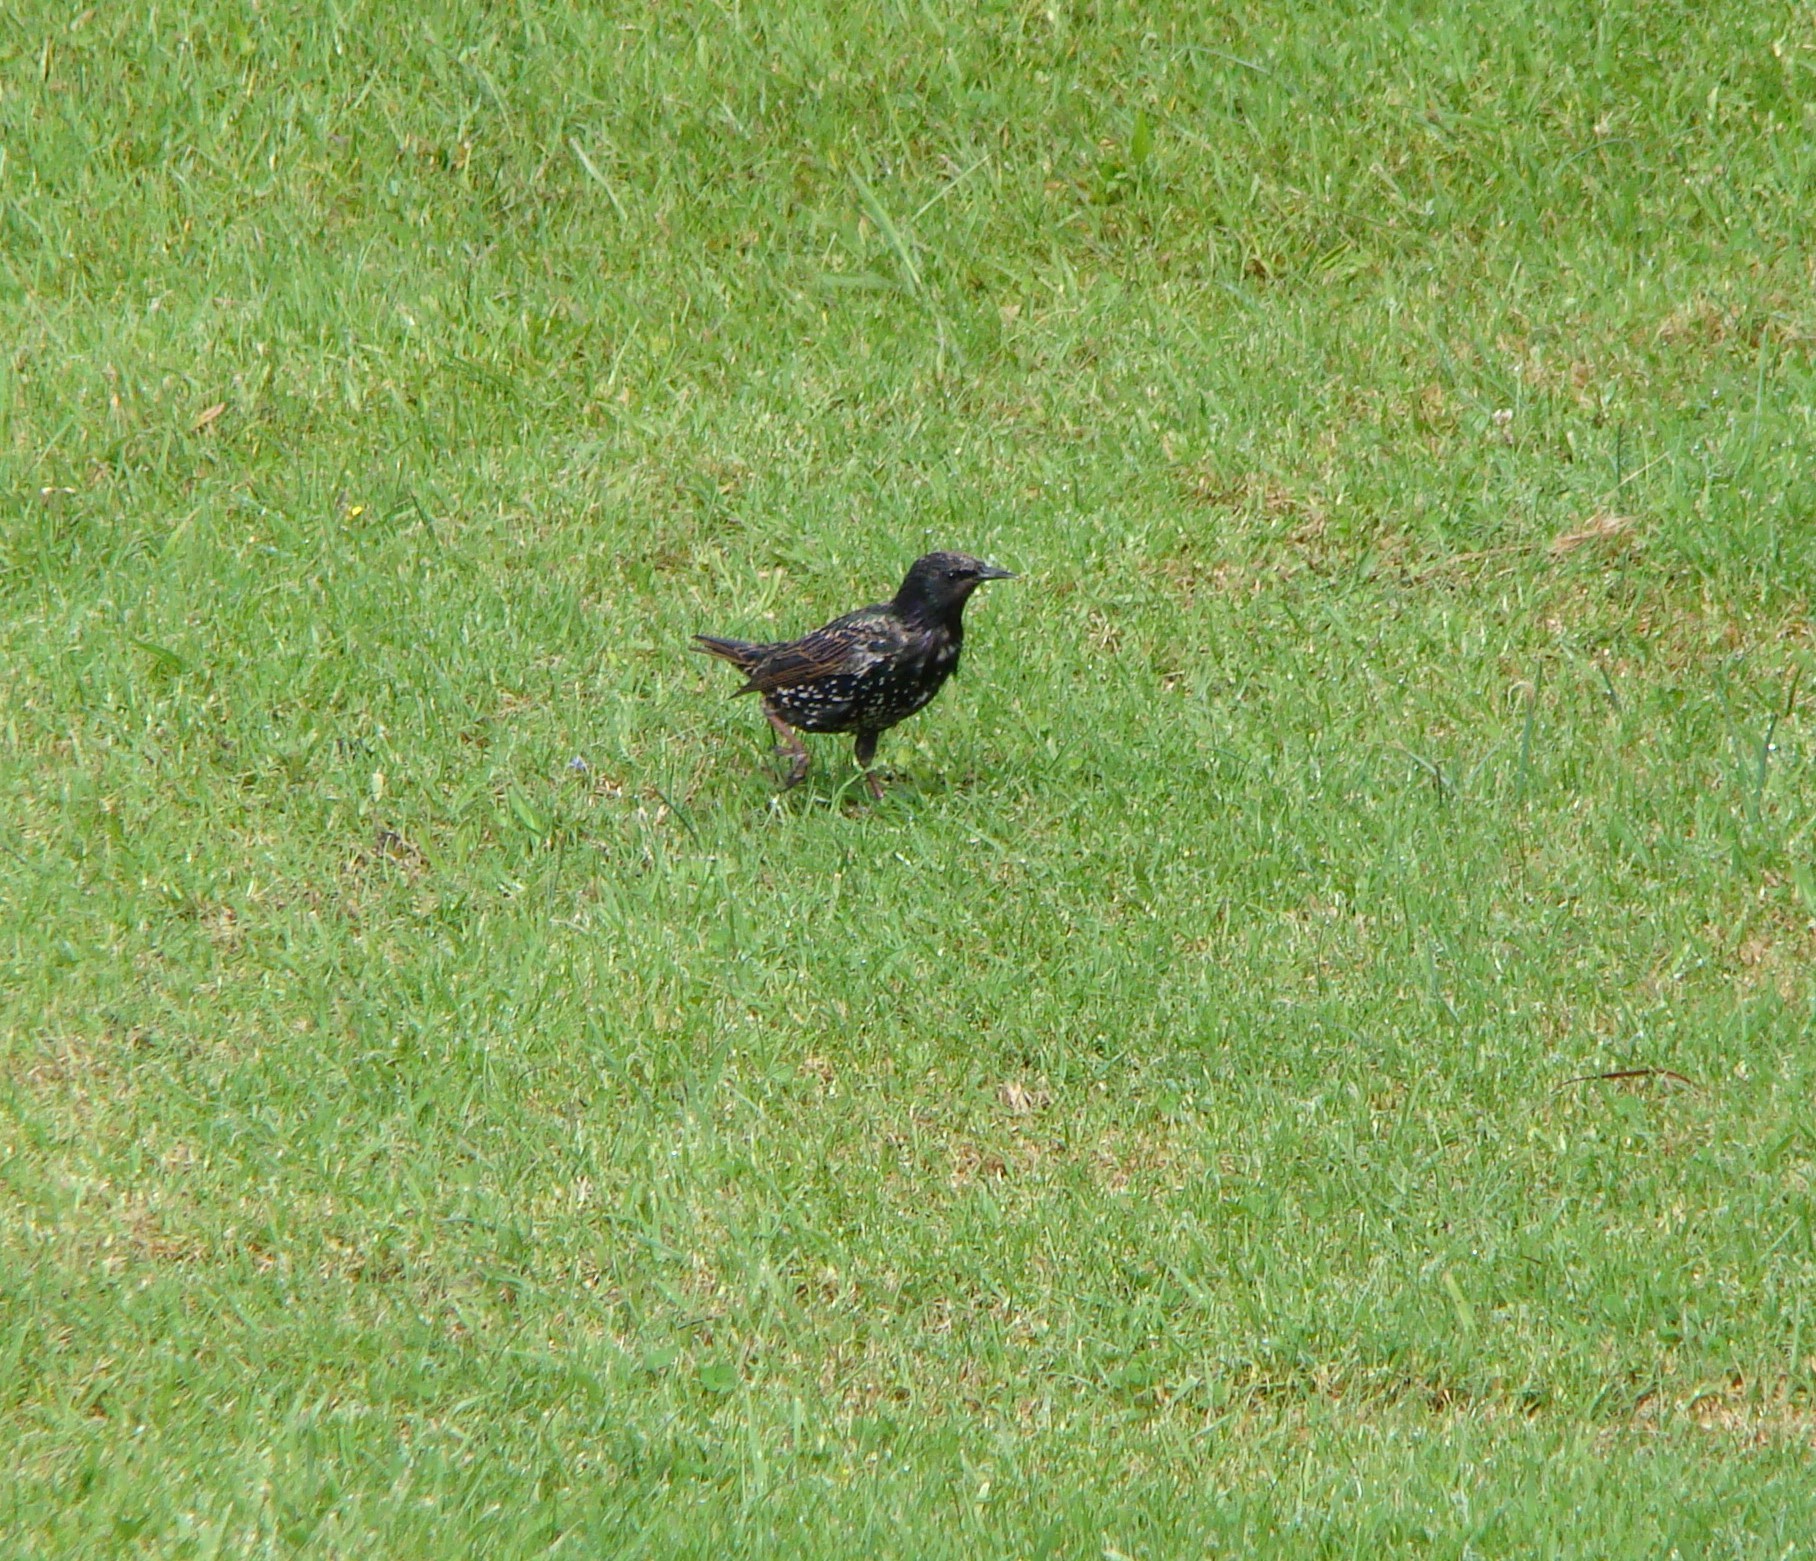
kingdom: Animalia
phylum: Chordata
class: Aves
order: Passeriformes
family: Sturnidae
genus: Sturnus
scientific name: Sturnus vulgaris
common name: Common starling
